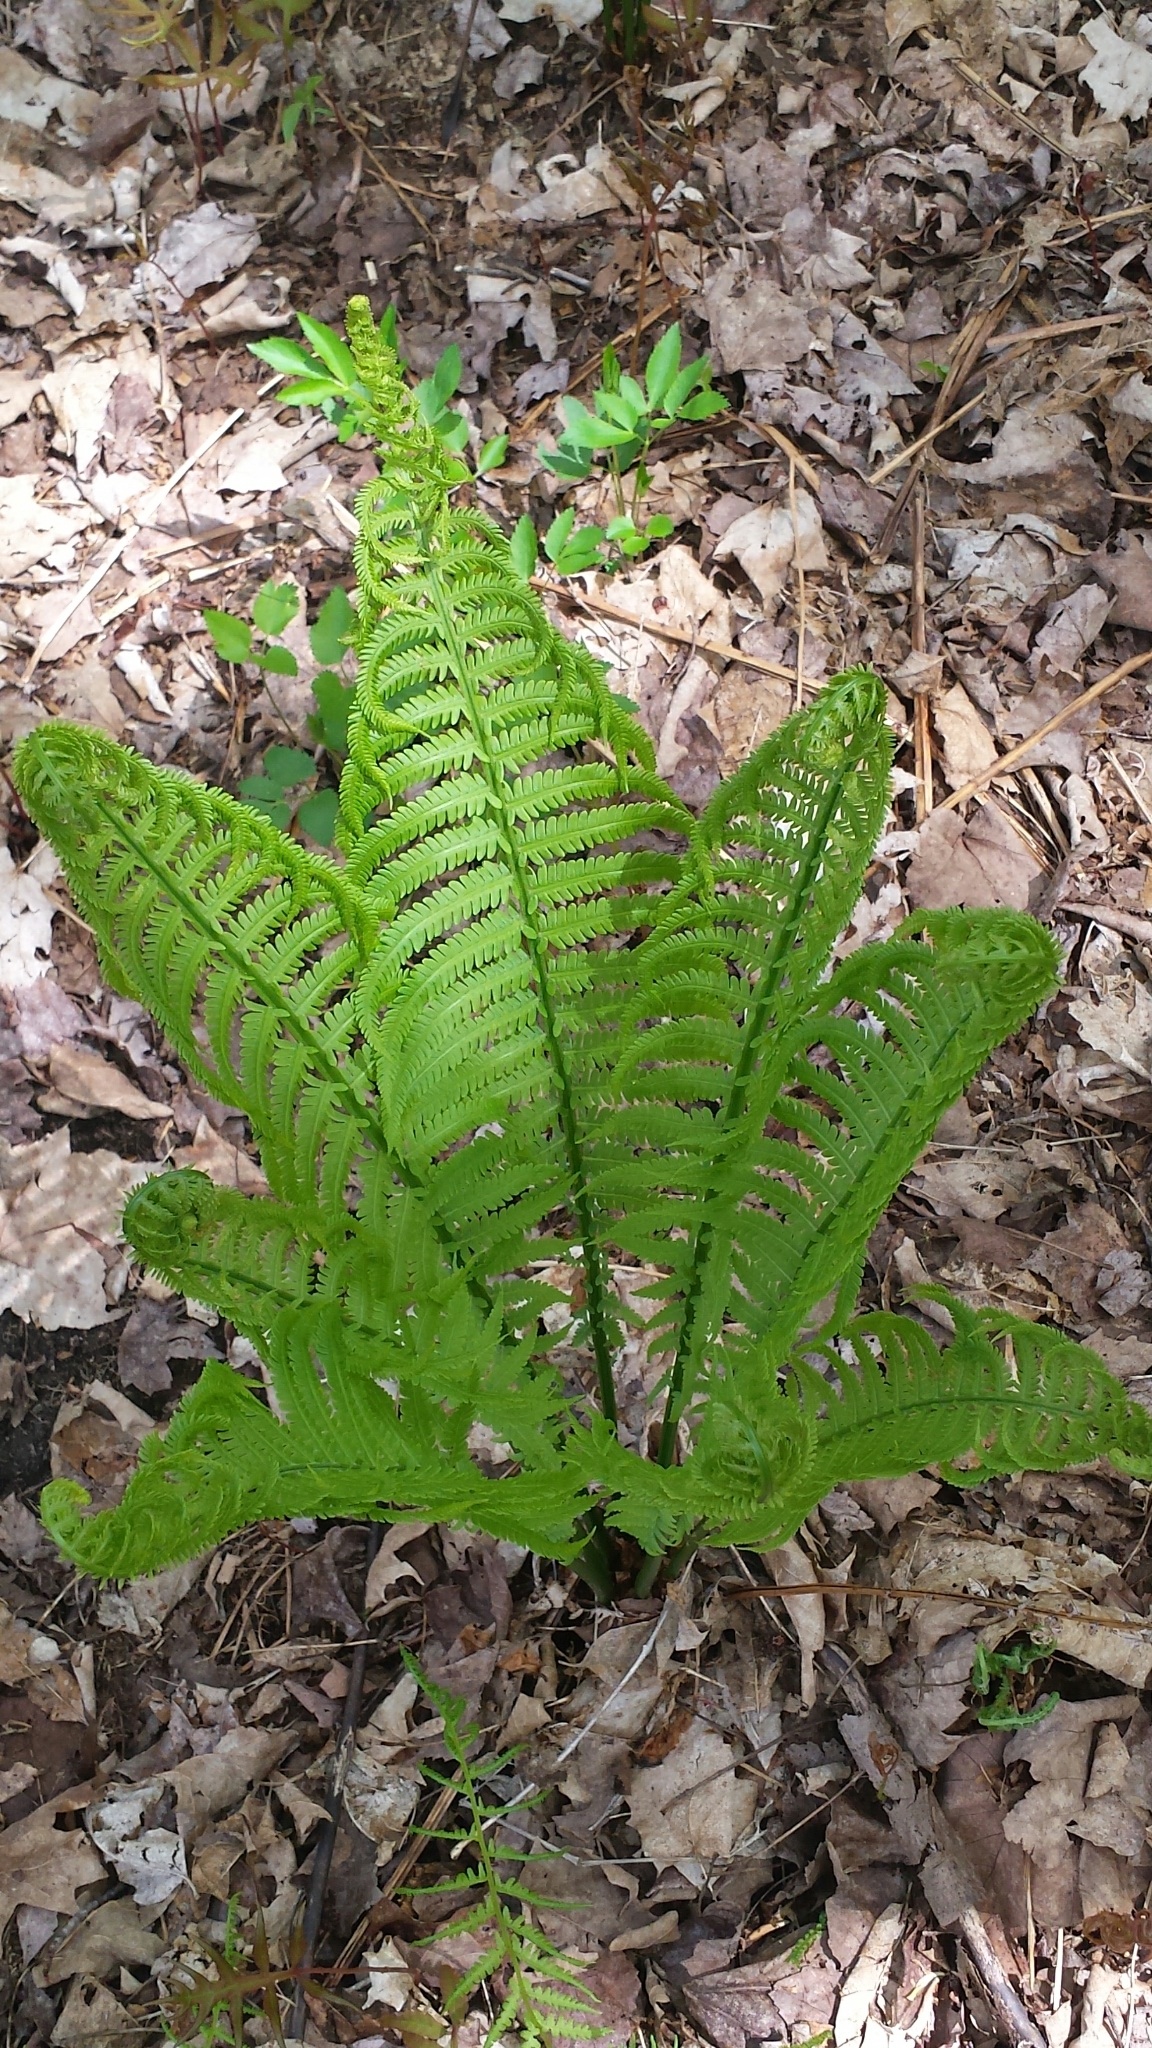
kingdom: Plantae
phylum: Tracheophyta
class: Polypodiopsida
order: Polypodiales
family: Onocleaceae
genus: Matteuccia
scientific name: Matteuccia struthiopteris
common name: Ostrich fern
